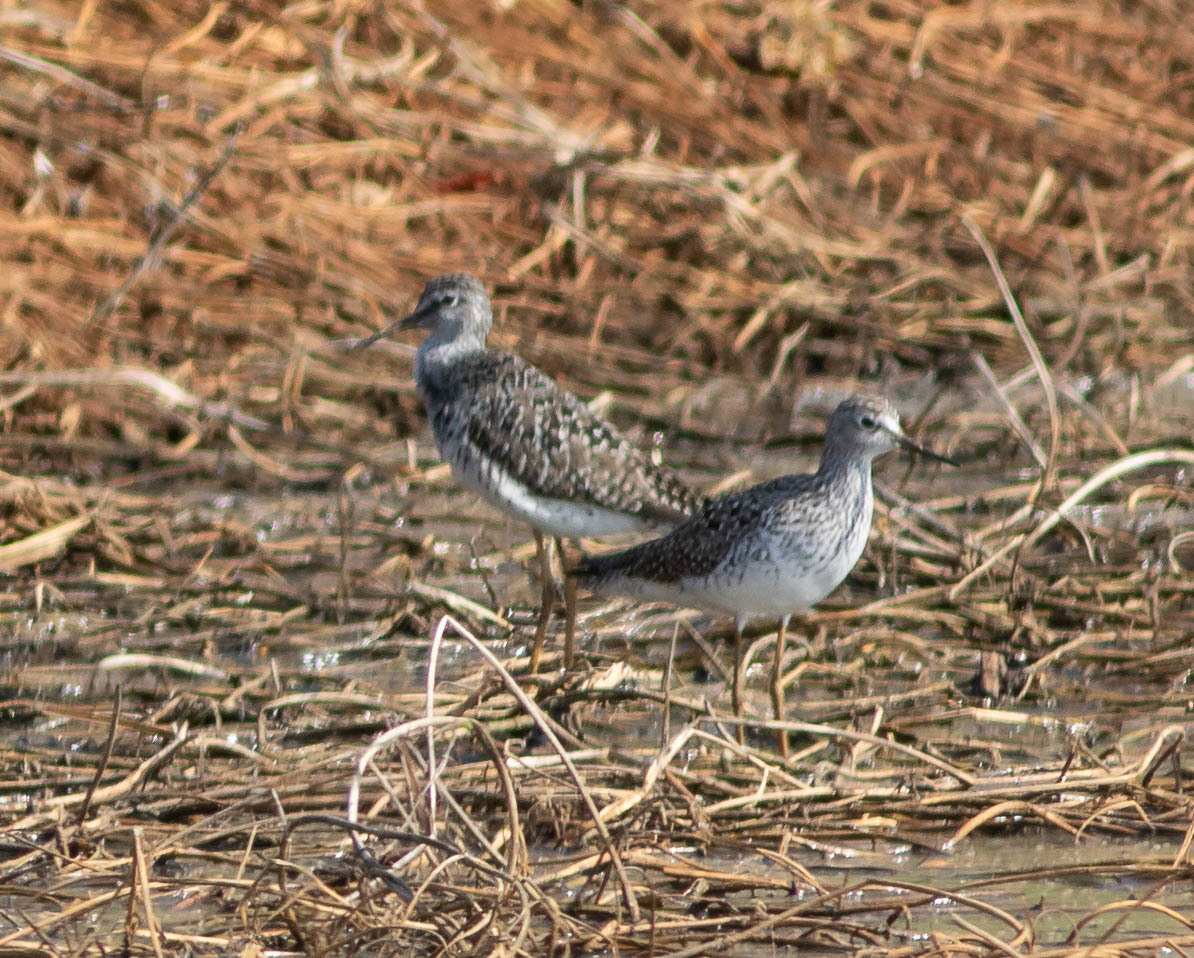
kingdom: Animalia
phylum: Chordata
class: Aves
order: Charadriiformes
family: Scolopacidae
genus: Tringa
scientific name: Tringa flavipes
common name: Lesser yellowlegs
